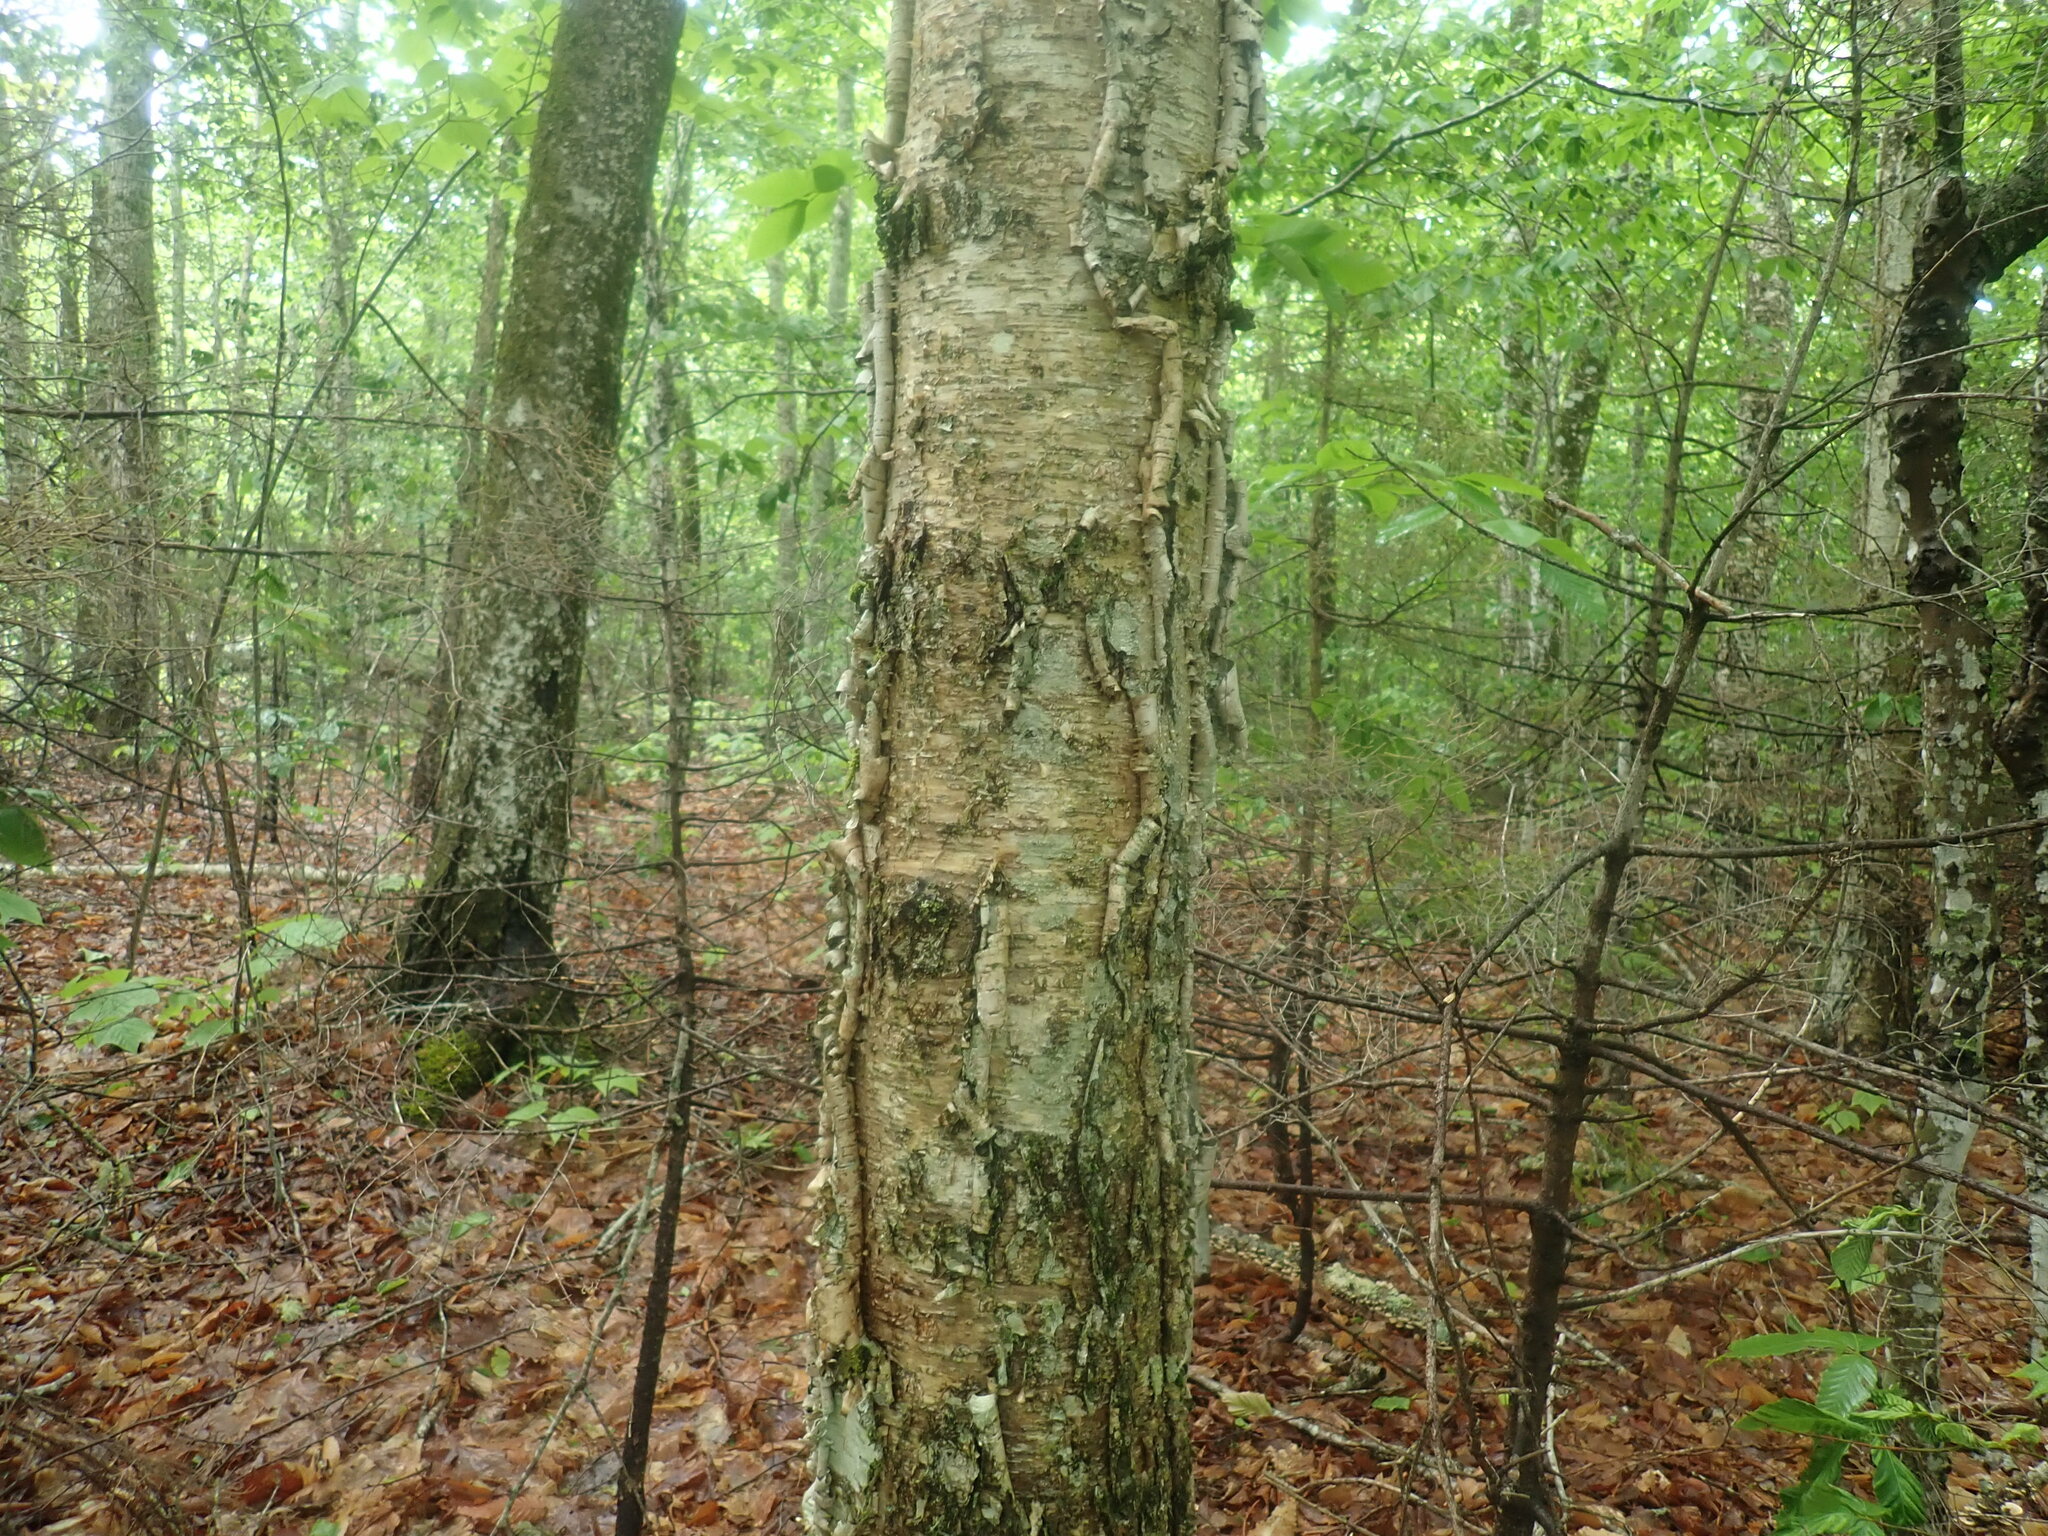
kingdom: Plantae
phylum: Tracheophyta
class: Magnoliopsida
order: Fagales
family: Betulaceae
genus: Betula
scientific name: Betula alleghaniensis
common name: Yellow birch
